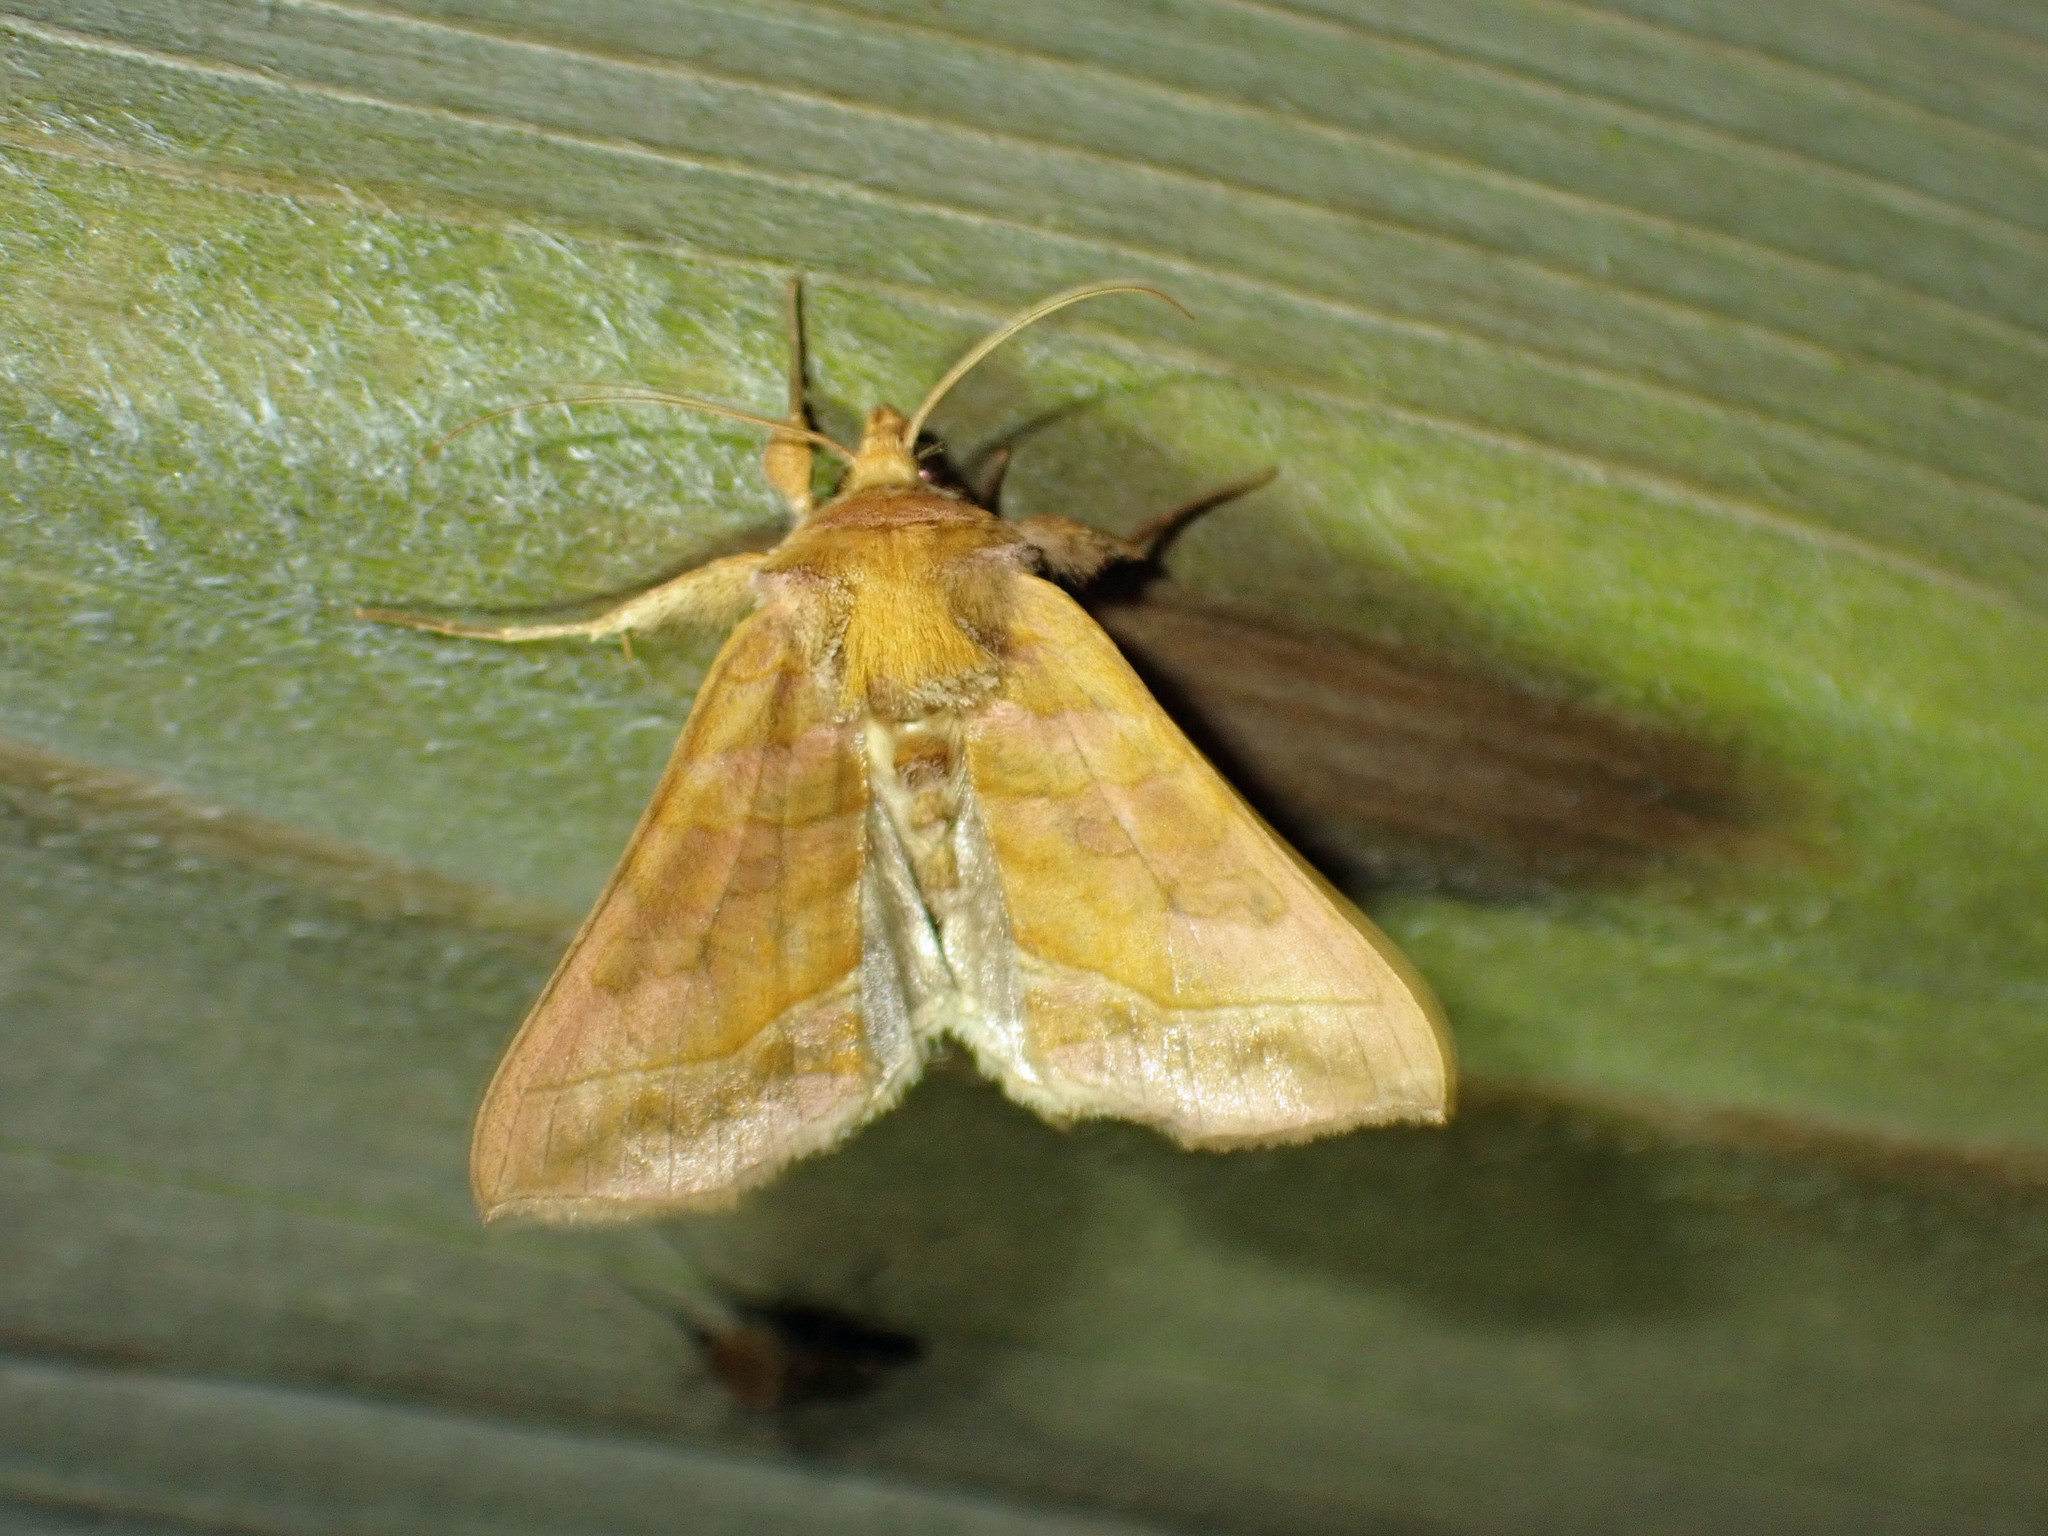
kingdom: Animalia
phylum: Arthropoda
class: Insecta
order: Lepidoptera
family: Noctuidae
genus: Diachrysia
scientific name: Diachrysia aereoides
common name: Dark-spotted looper moth
